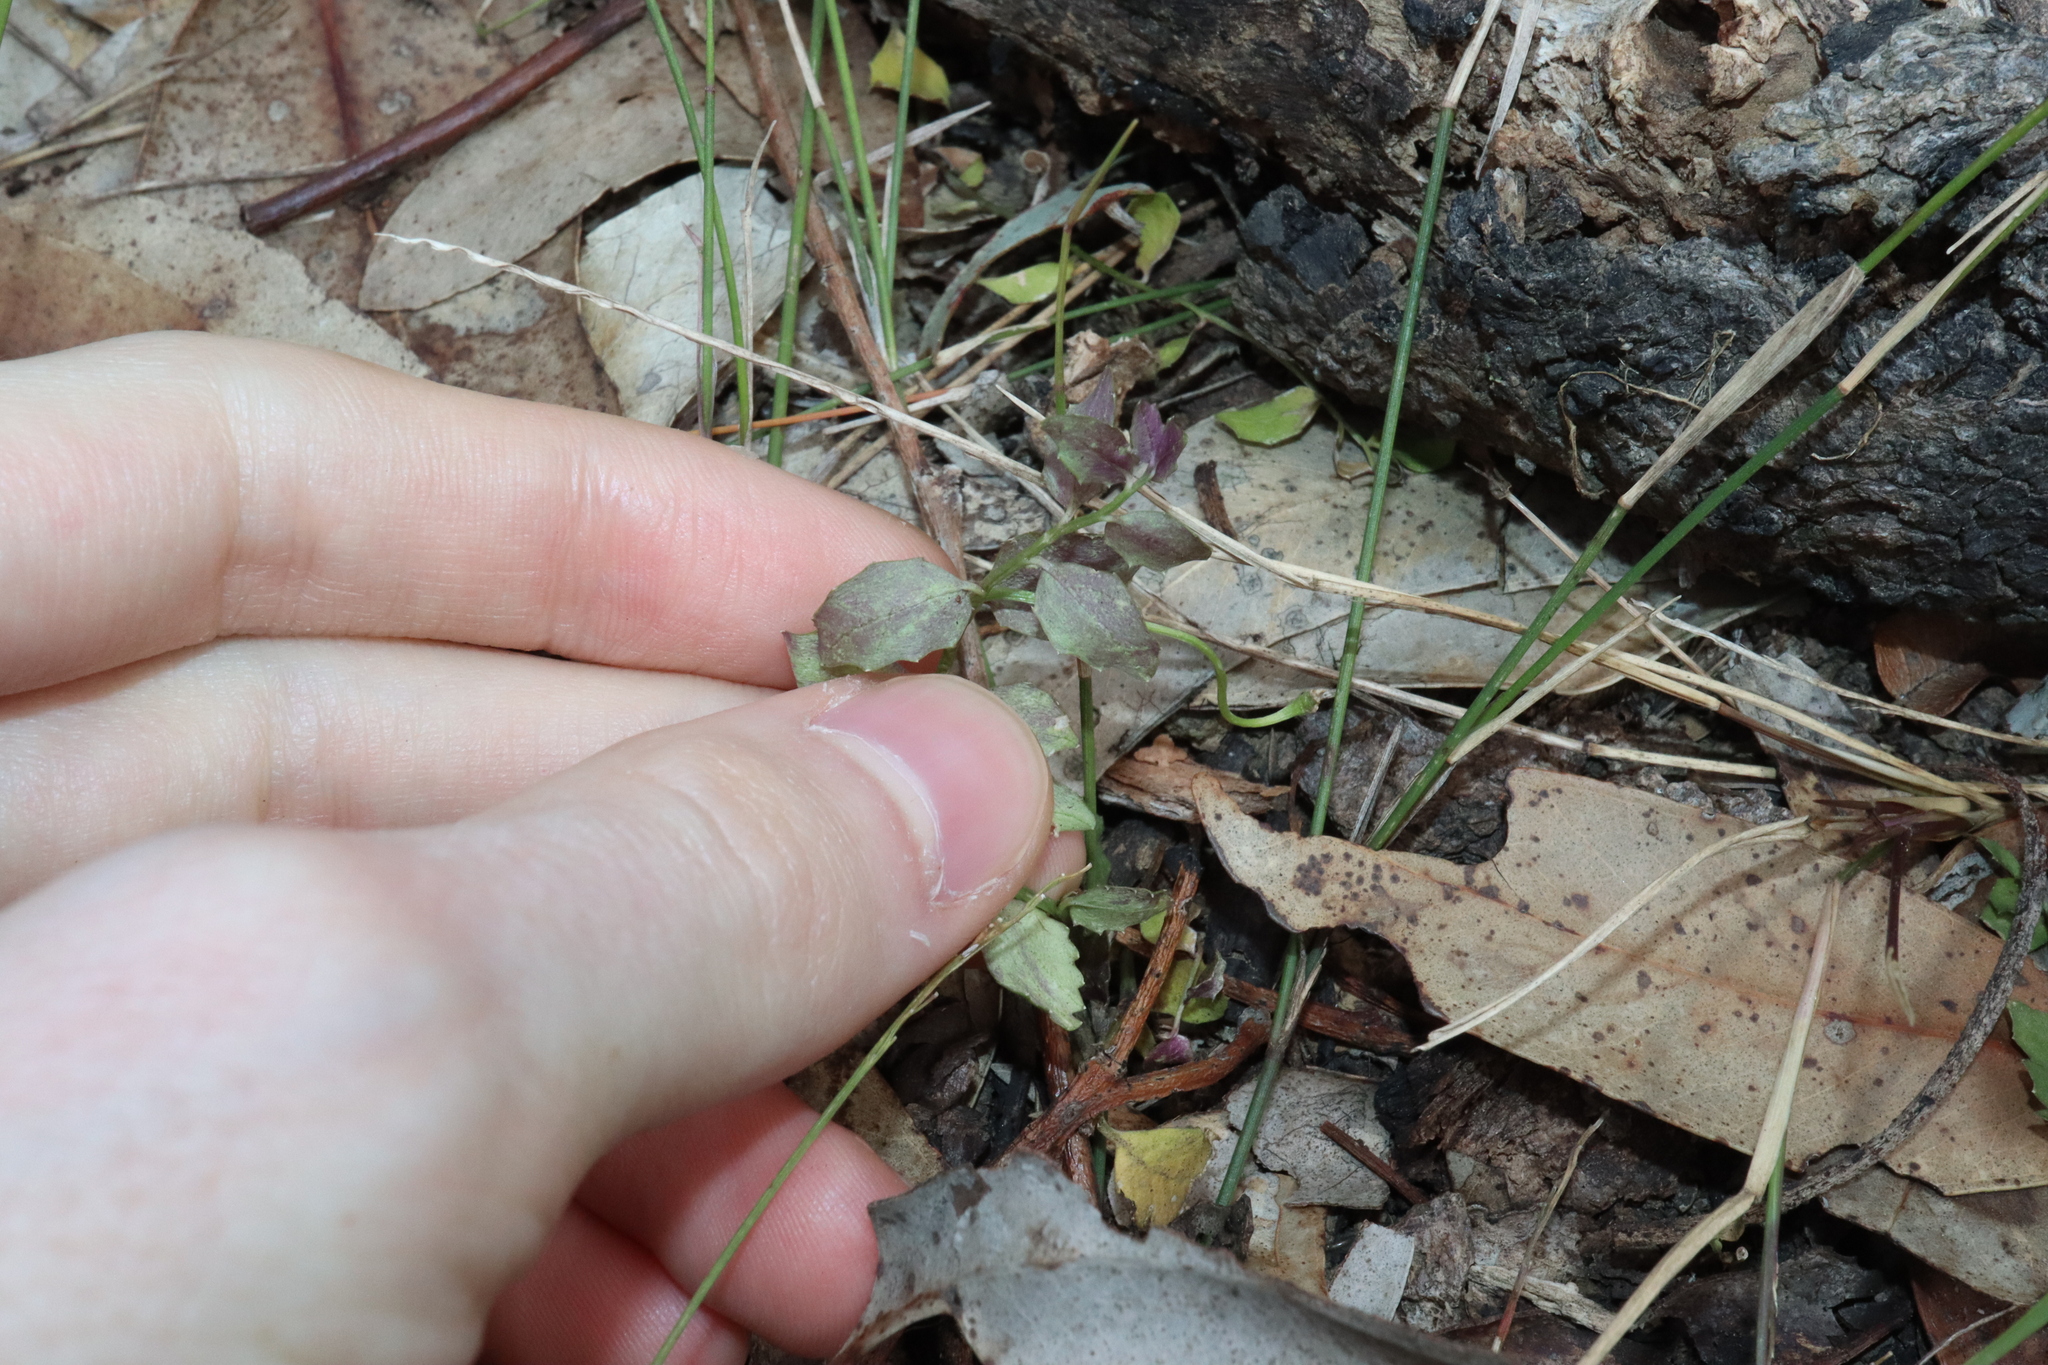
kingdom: Plantae
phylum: Tracheophyta
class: Magnoliopsida
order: Asterales
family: Campanulaceae
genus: Lobelia
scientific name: Lobelia purpurascens
